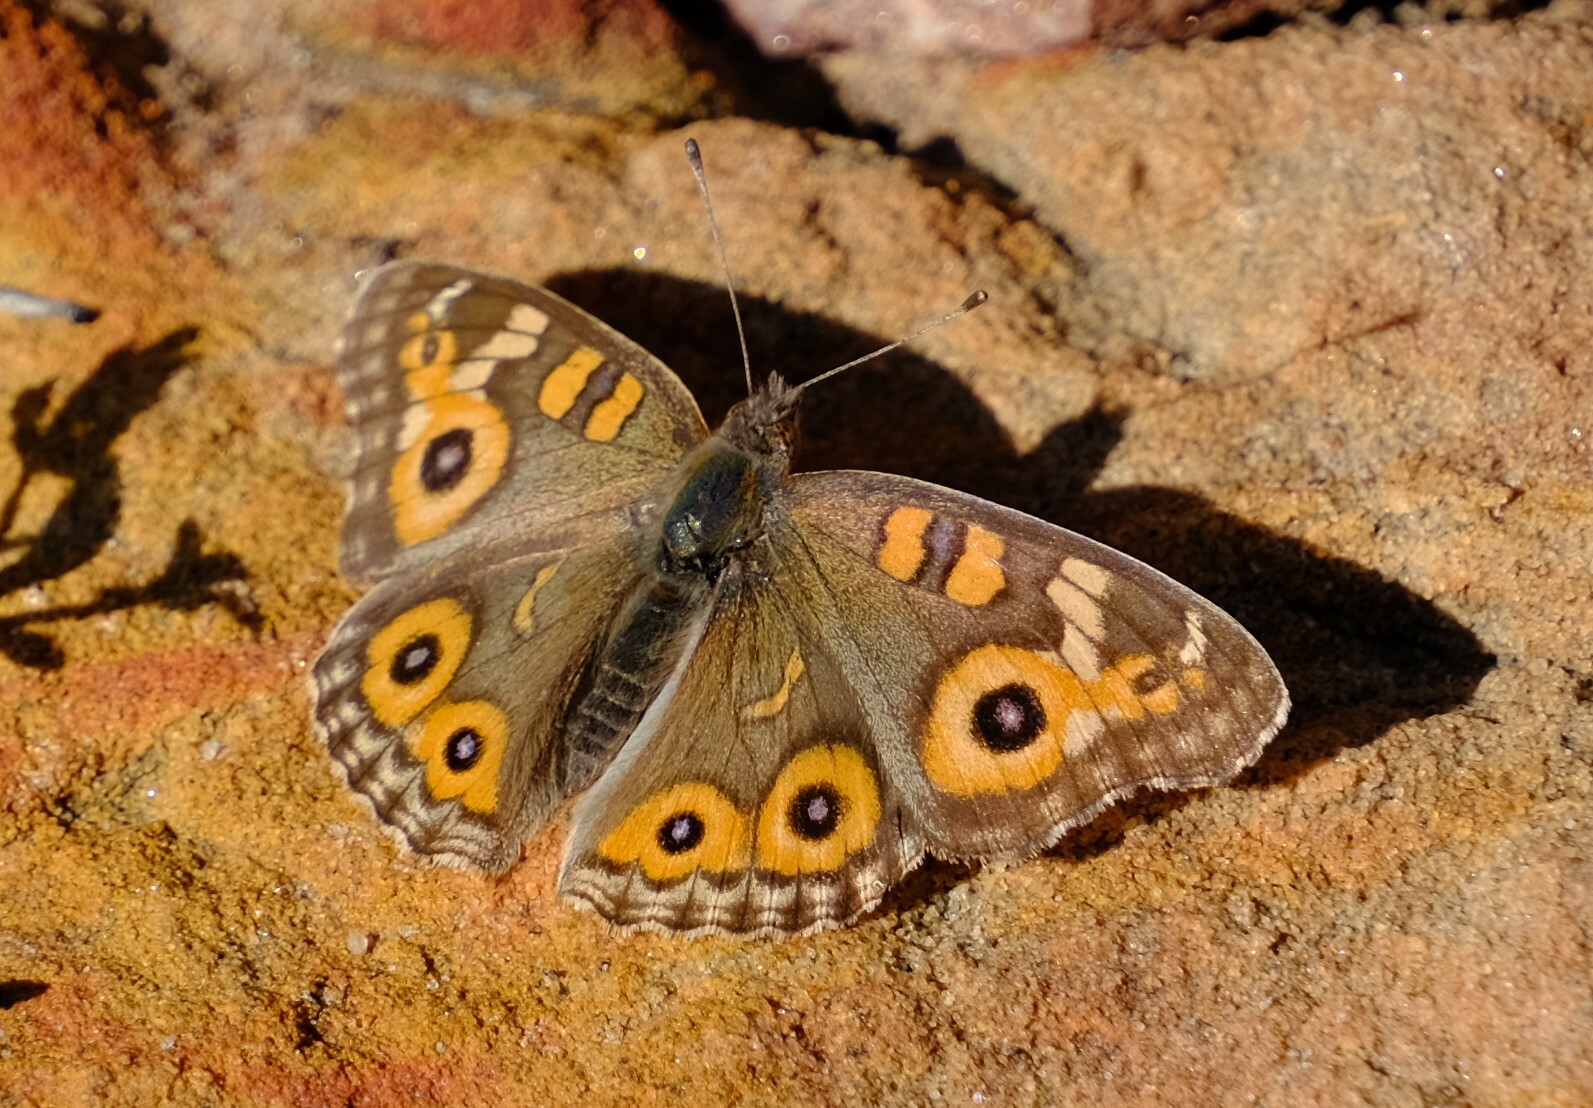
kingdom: Animalia
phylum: Arthropoda
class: Insecta
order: Lepidoptera
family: Nymphalidae
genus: Junonia
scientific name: Junonia villida
